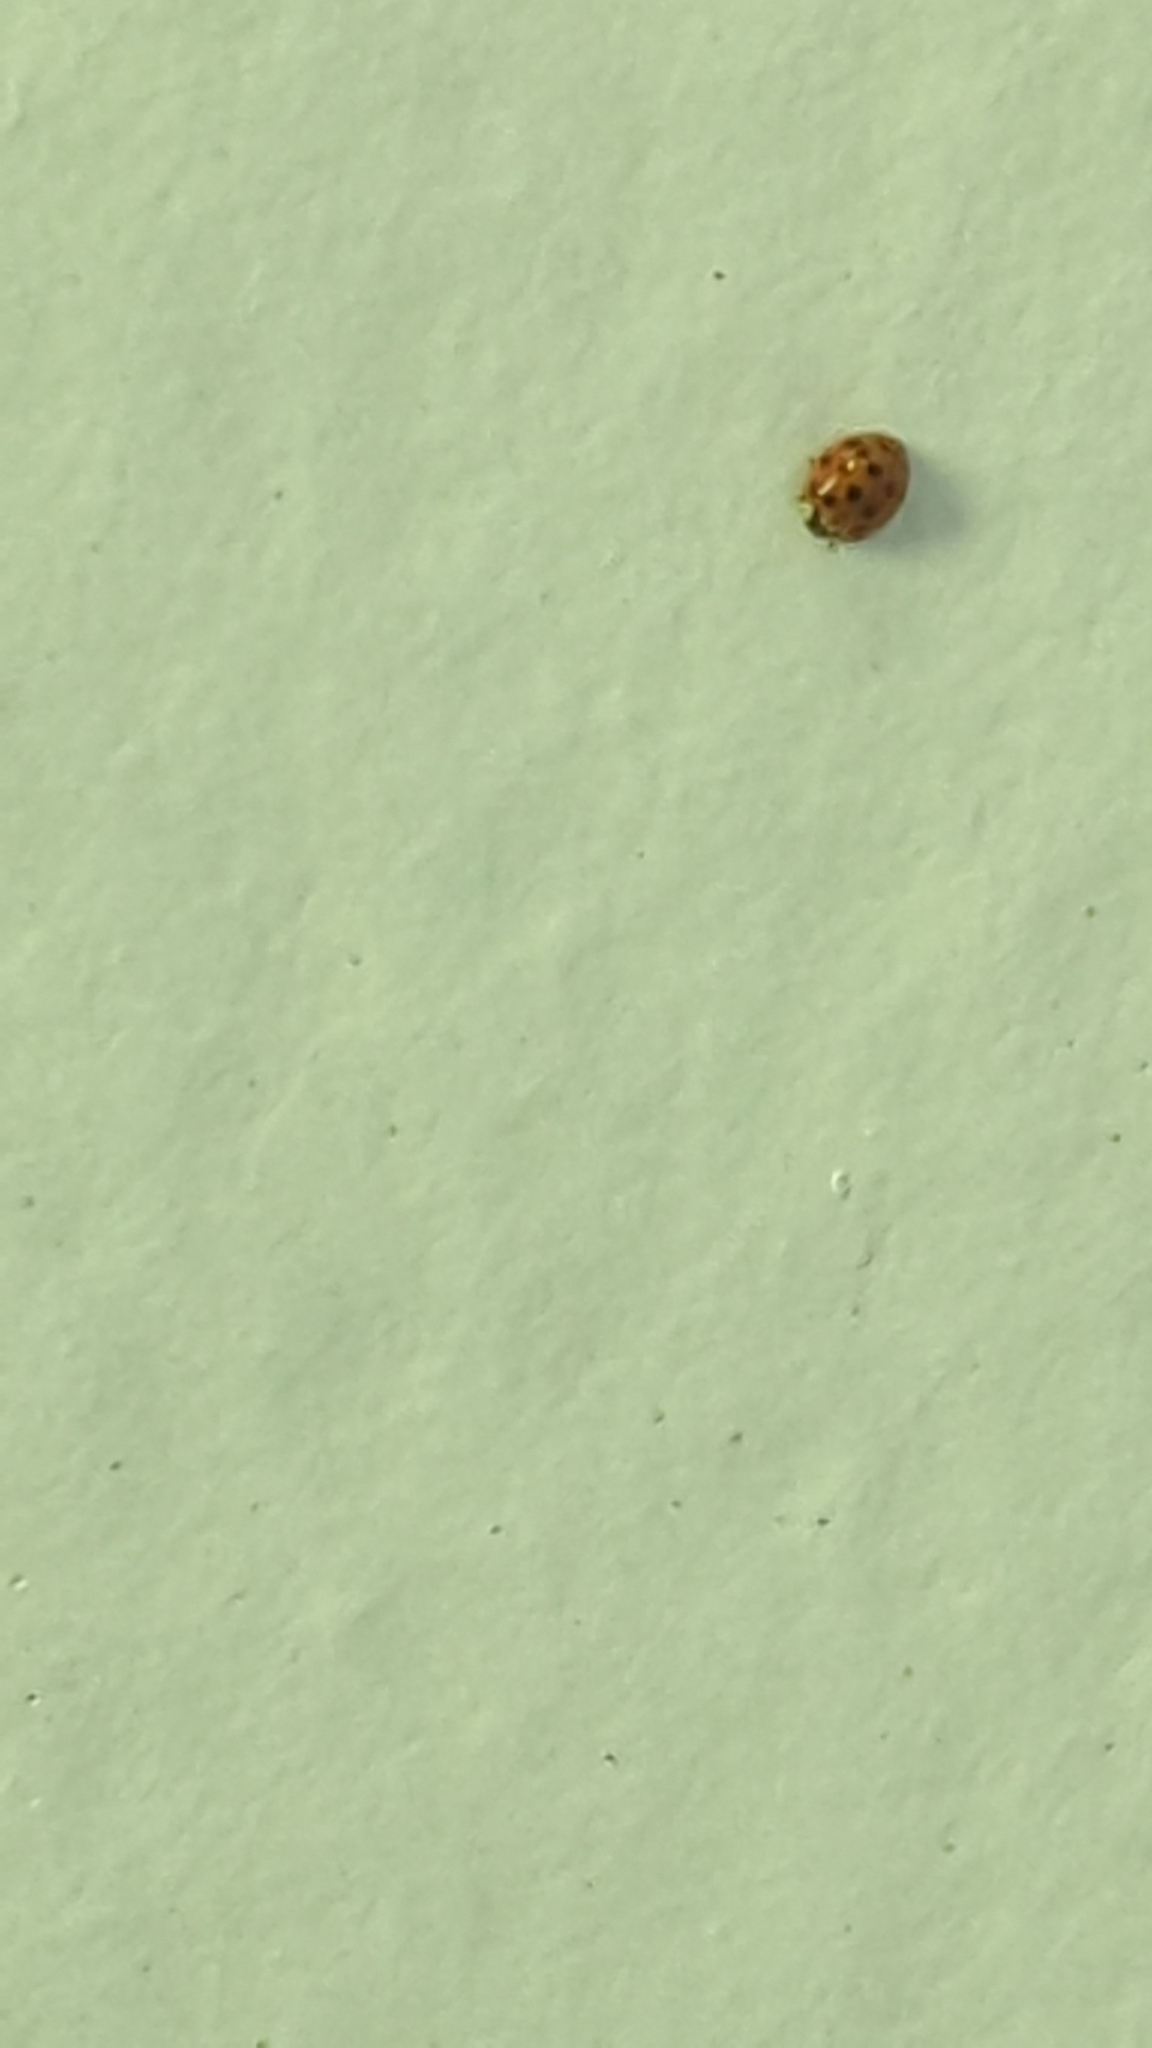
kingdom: Animalia
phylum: Arthropoda
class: Insecta
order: Coleoptera
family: Coccinellidae
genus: Harmonia
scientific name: Harmonia axyridis
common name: Harlequin ladybird
